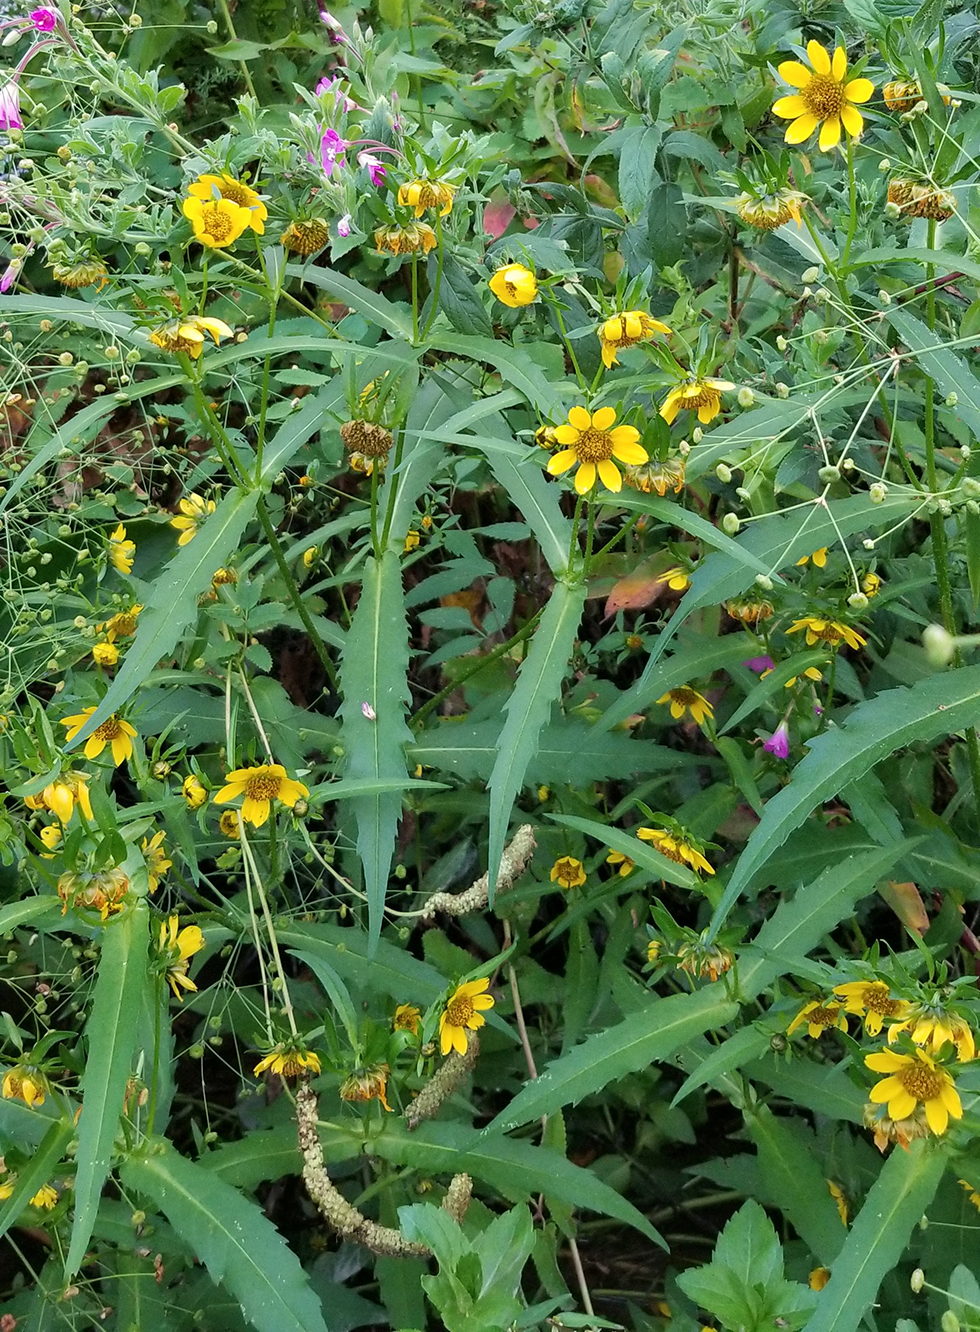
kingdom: Plantae
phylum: Tracheophyta
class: Magnoliopsida
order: Asterales
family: Asteraceae
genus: Bidens
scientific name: Bidens cernua
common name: Nodding bur-marigold
